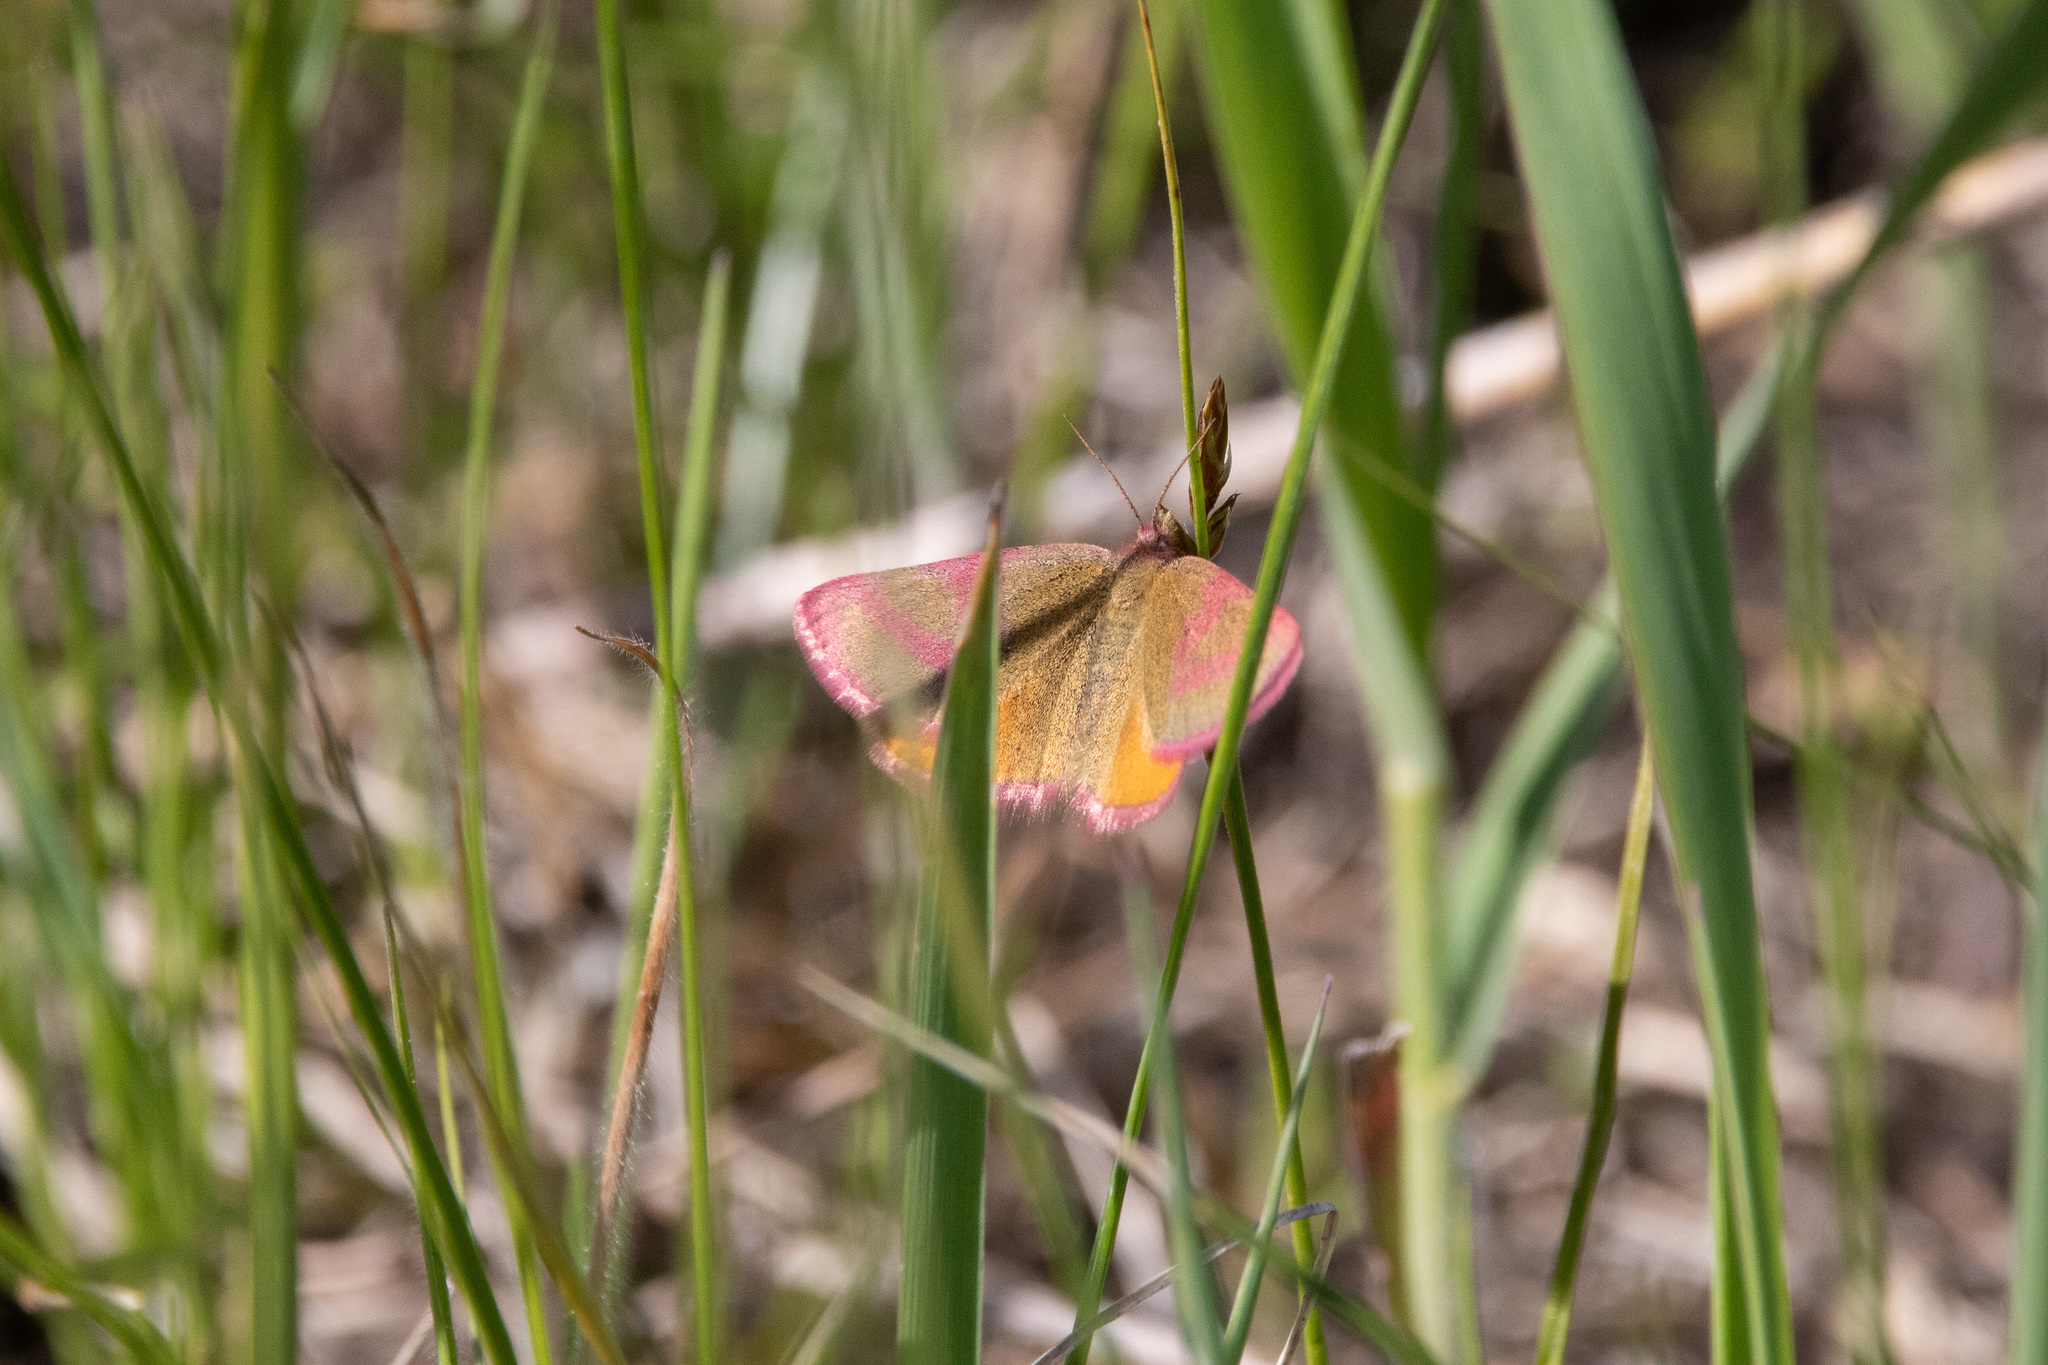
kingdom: Animalia
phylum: Arthropoda
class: Insecta
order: Lepidoptera
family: Geometridae
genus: Lythria
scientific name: Lythria purpuraria
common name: Purple-barred yellow
